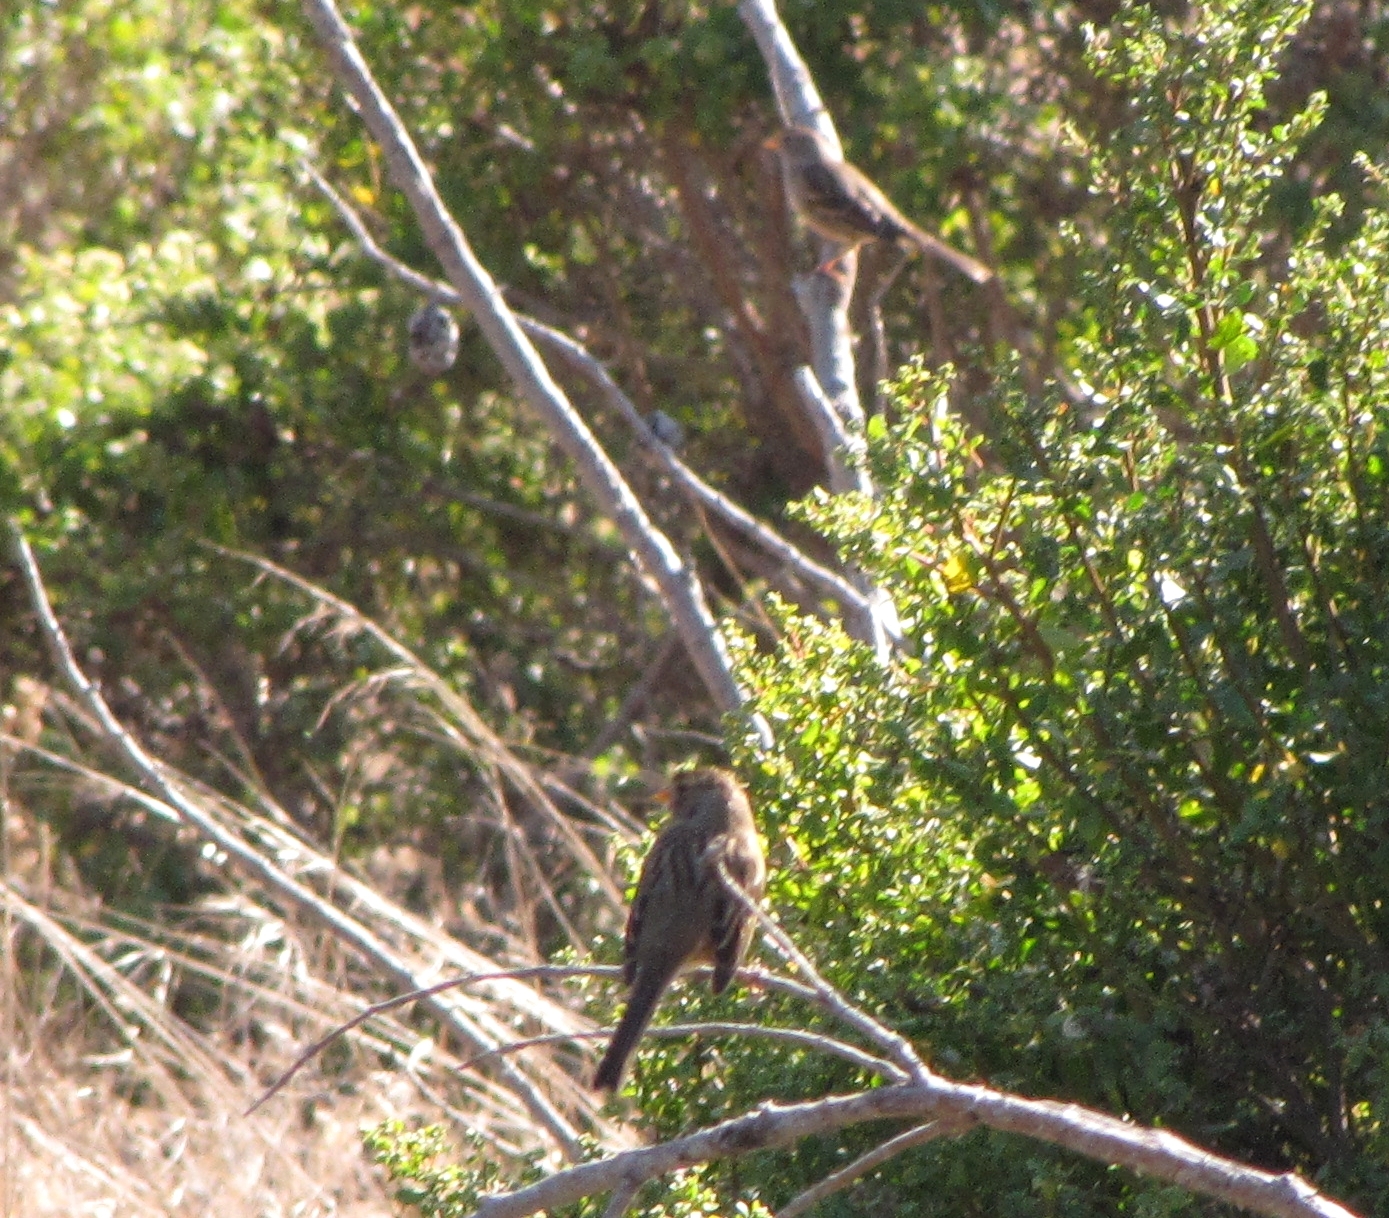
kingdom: Animalia
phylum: Chordata
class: Aves
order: Passeriformes
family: Passerellidae
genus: Zonotrichia
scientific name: Zonotrichia leucophrys
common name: White-crowned sparrow
